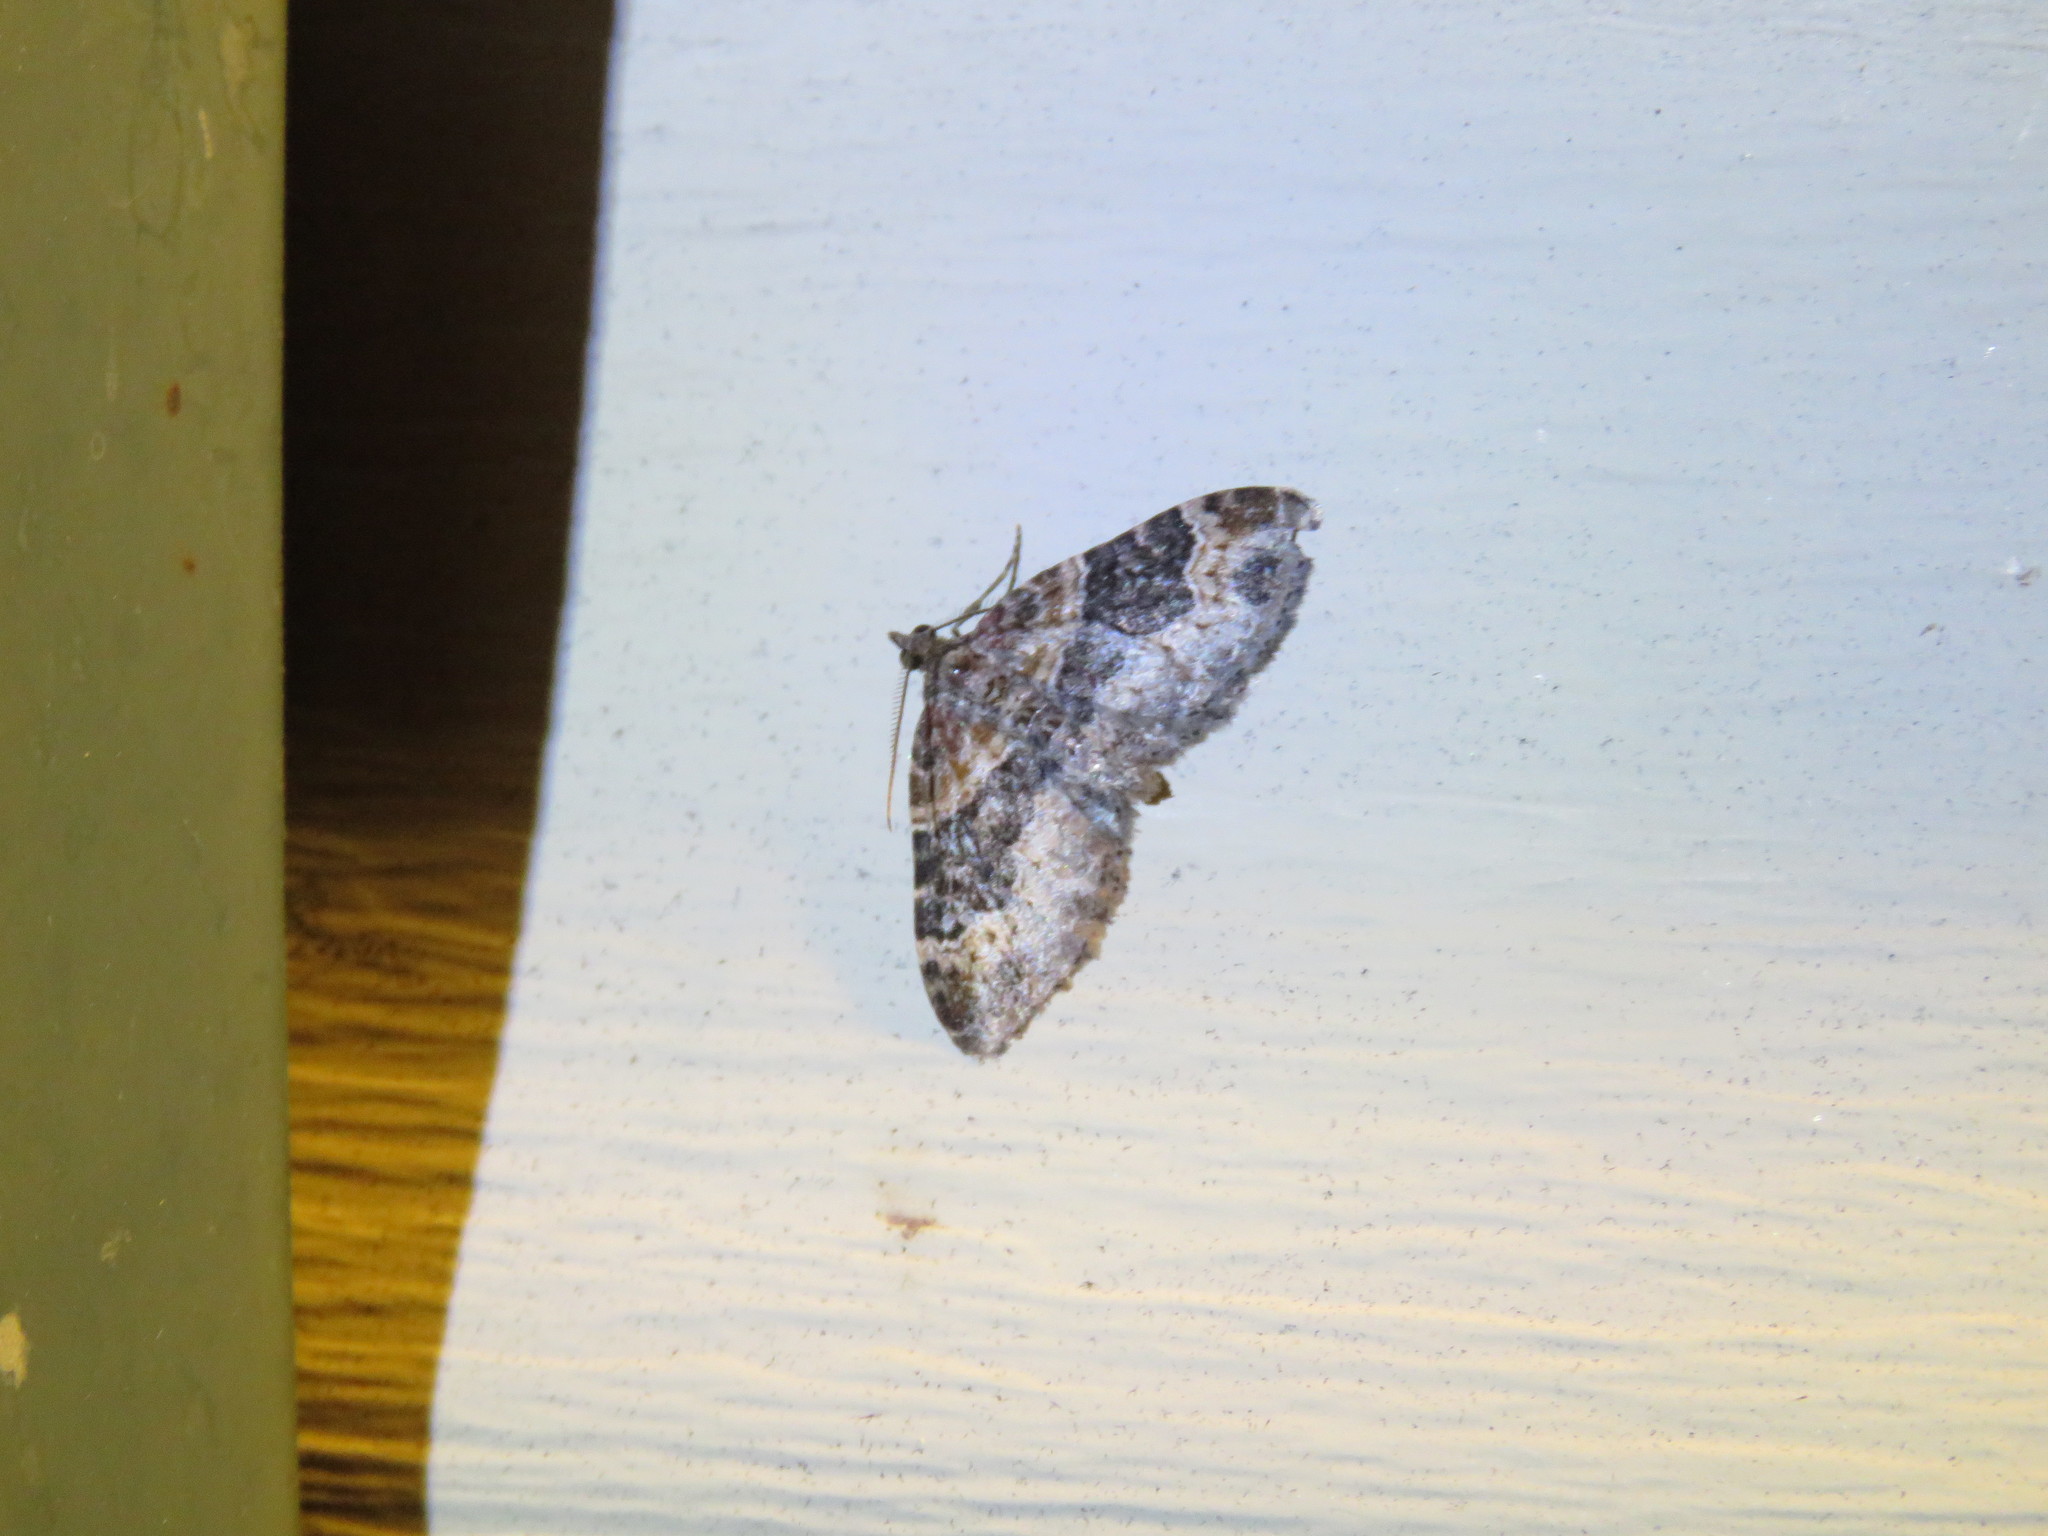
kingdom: Animalia
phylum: Arthropoda
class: Insecta
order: Lepidoptera
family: Geometridae
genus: Xanthorhoe
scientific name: Xanthorhoe ferrugata
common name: Dark-barred twin-spot carpet
